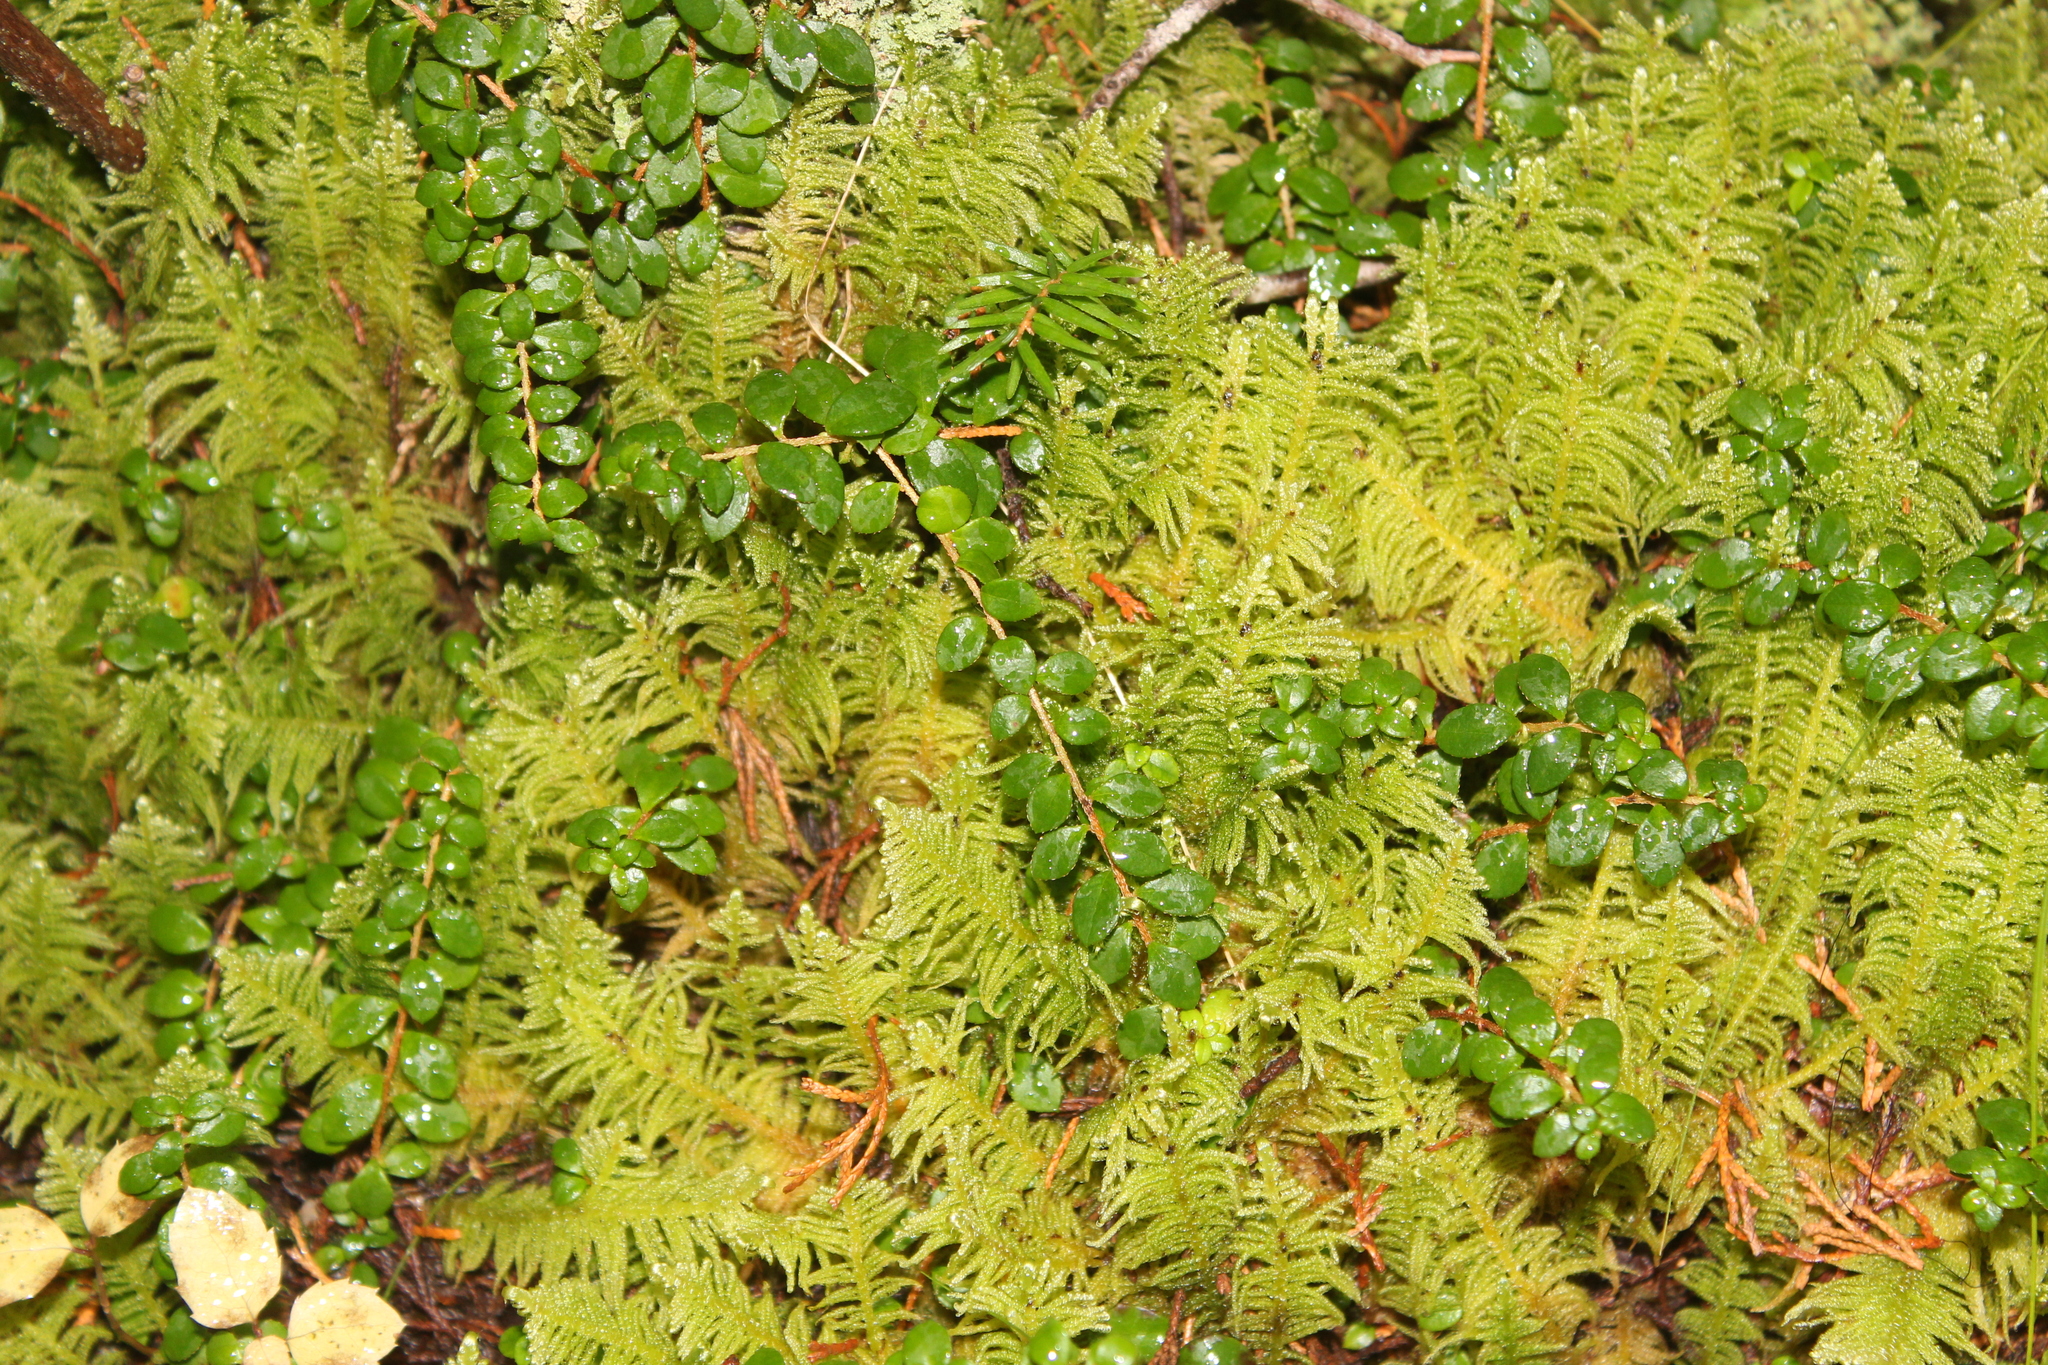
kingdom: Plantae
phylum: Tracheophyta
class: Magnoliopsida
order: Ericales
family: Ericaceae
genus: Gaultheria
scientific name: Gaultheria hispidula
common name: Cancer wintergreen
